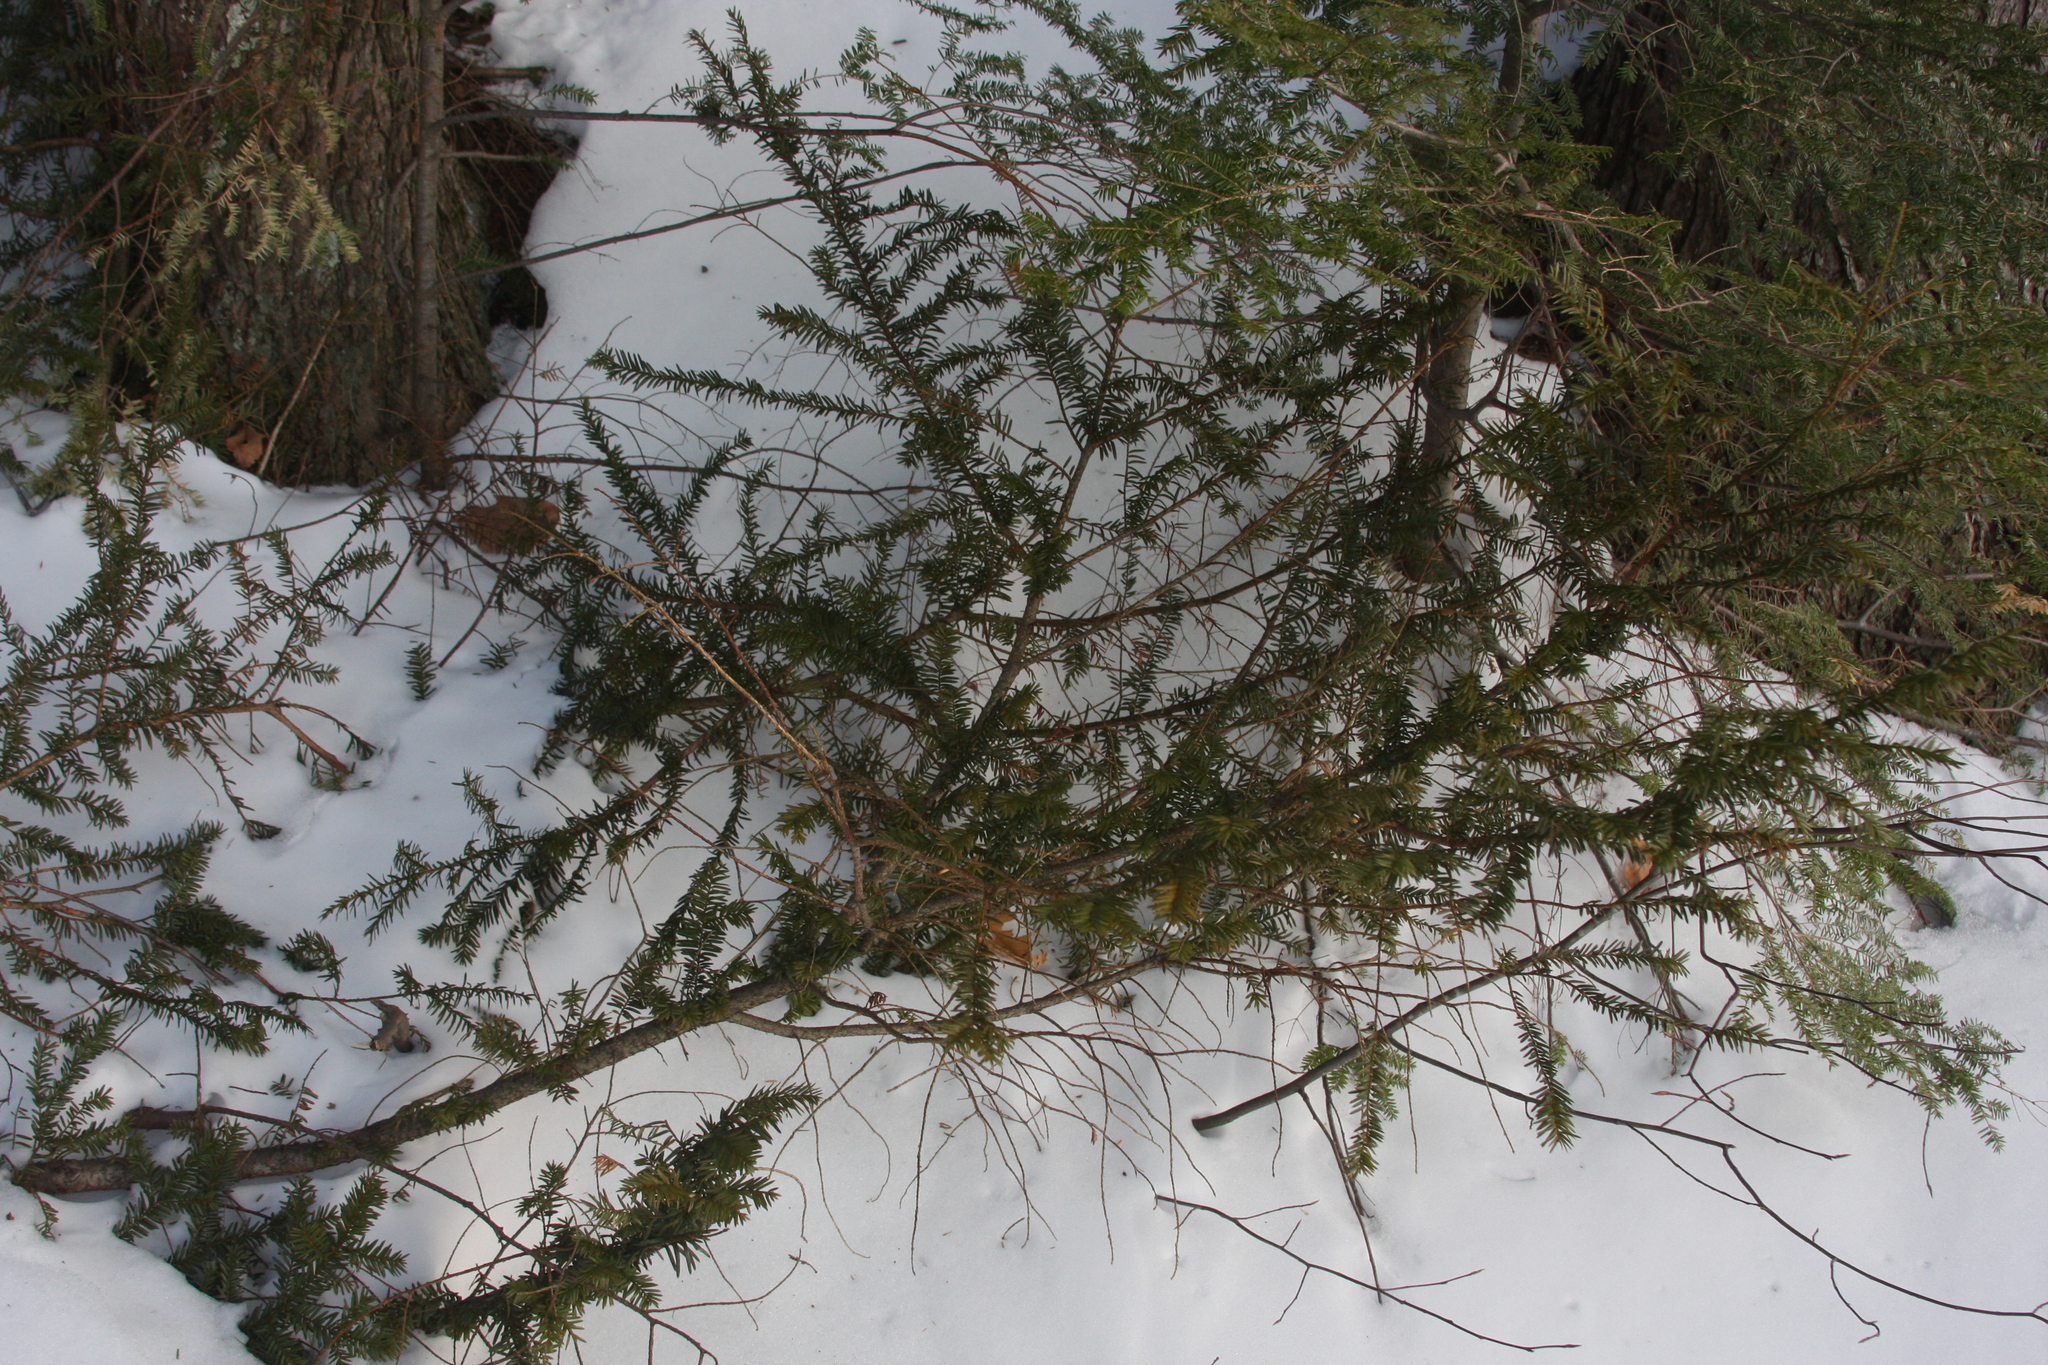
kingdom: Plantae
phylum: Tracheophyta
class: Pinopsida
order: Pinales
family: Taxaceae
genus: Taxus
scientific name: Taxus canadensis
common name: American yew
